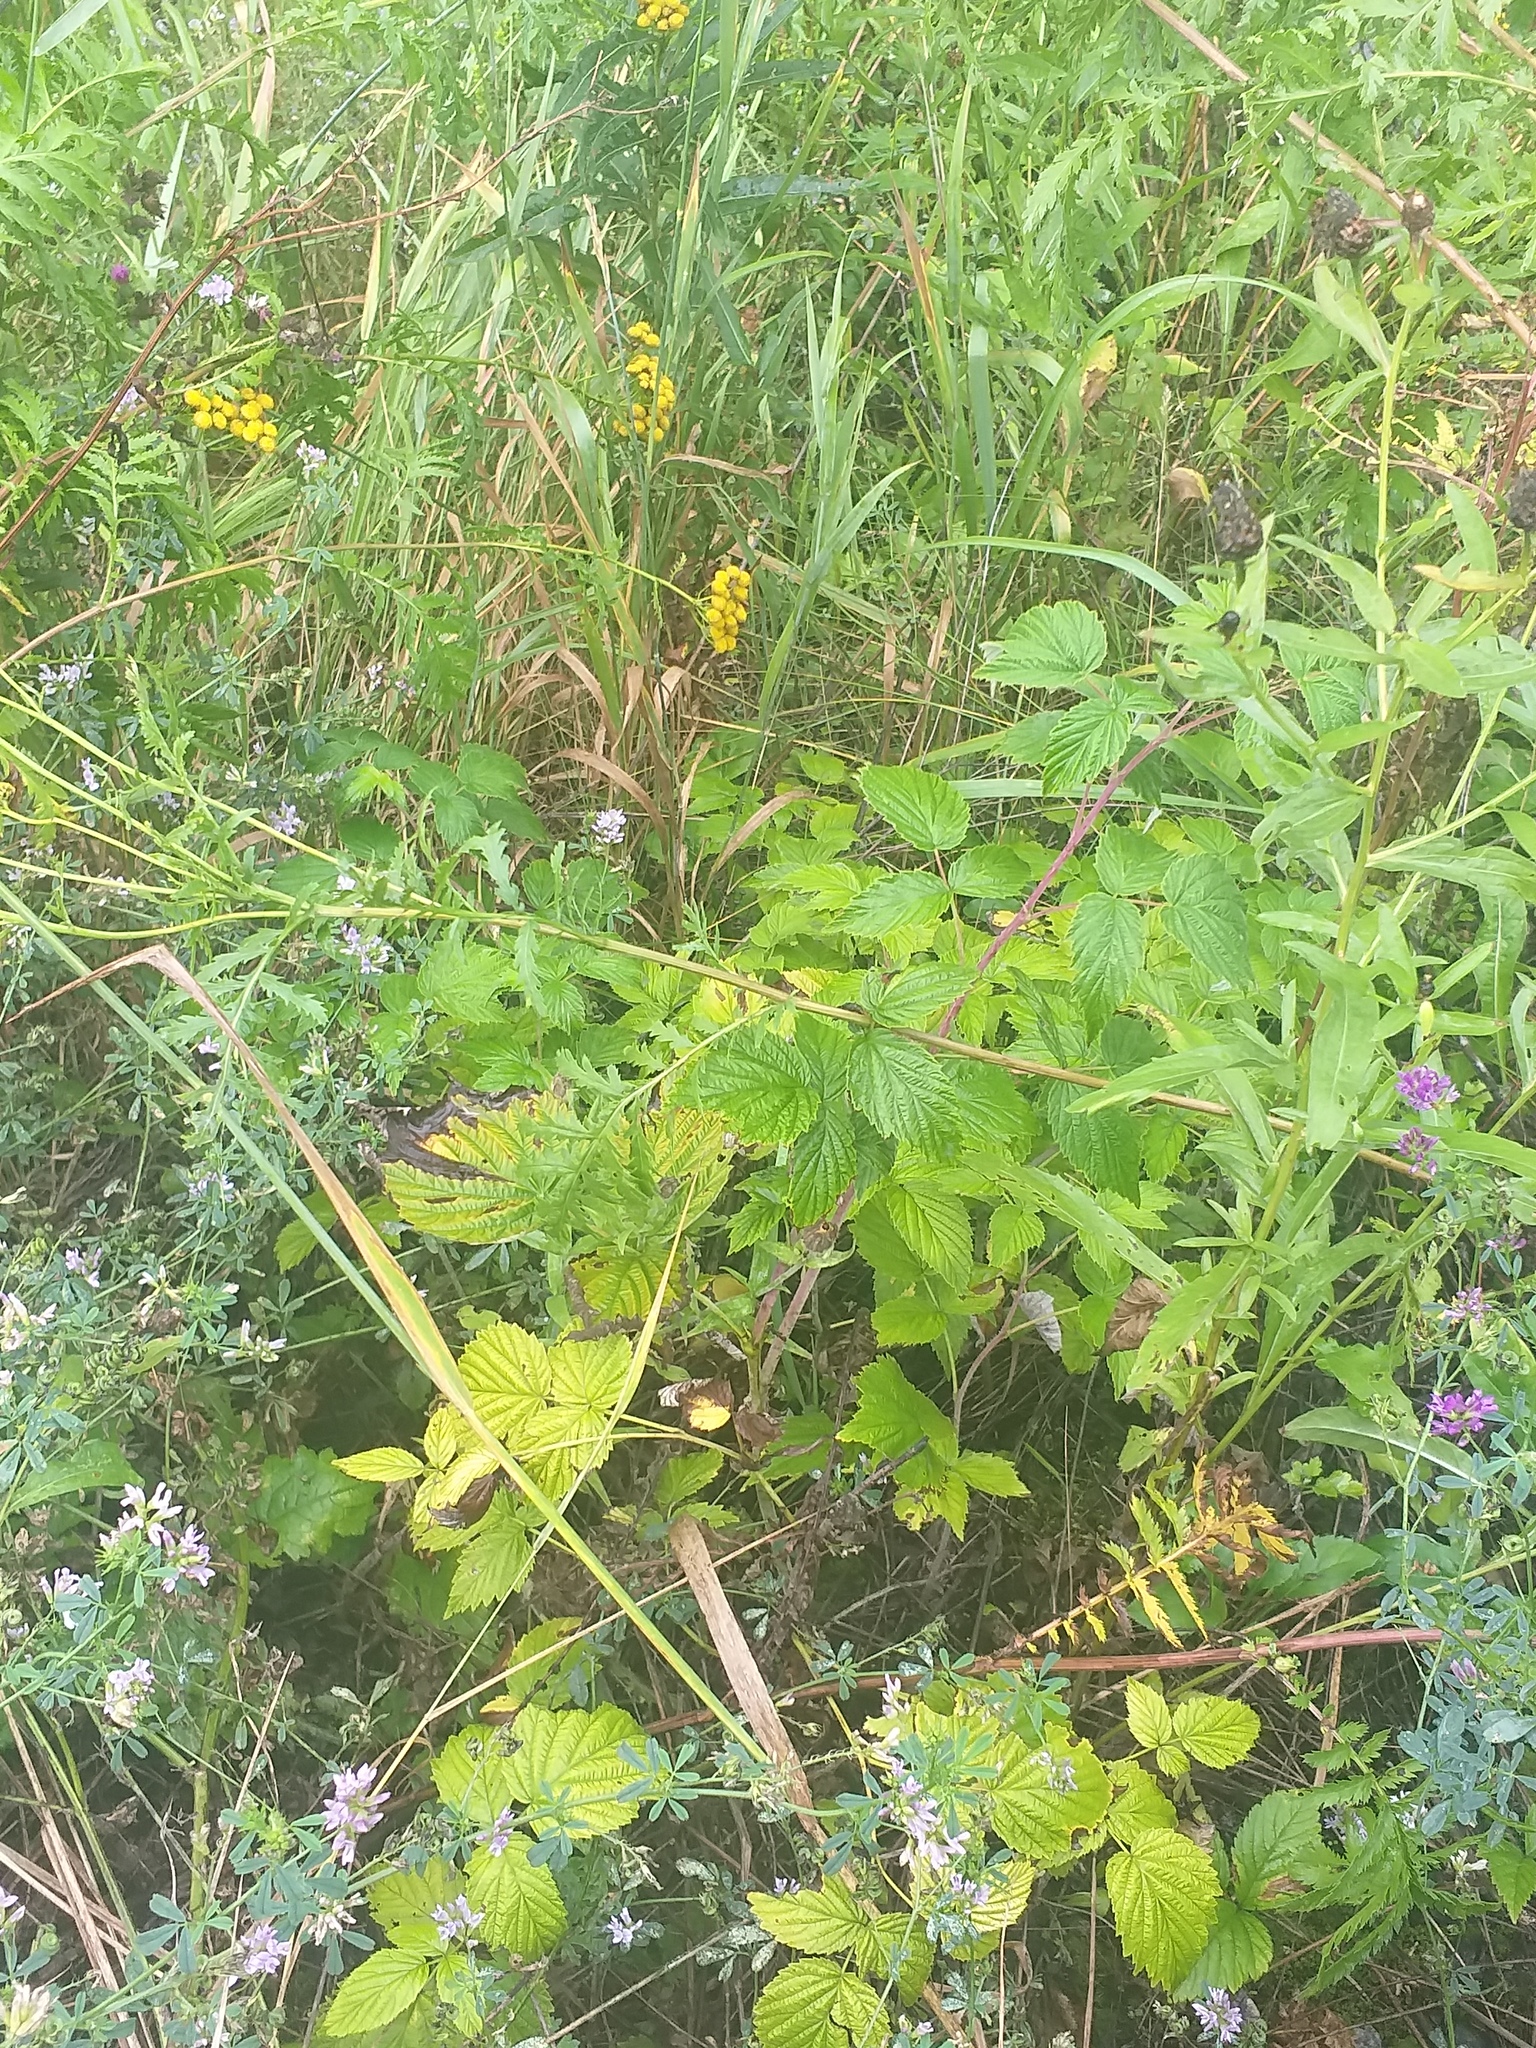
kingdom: Plantae
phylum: Tracheophyta
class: Magnoliopsida
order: Rosales
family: Rosaceae
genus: Rubus
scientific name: Rubus idaeus
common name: Raspberry
